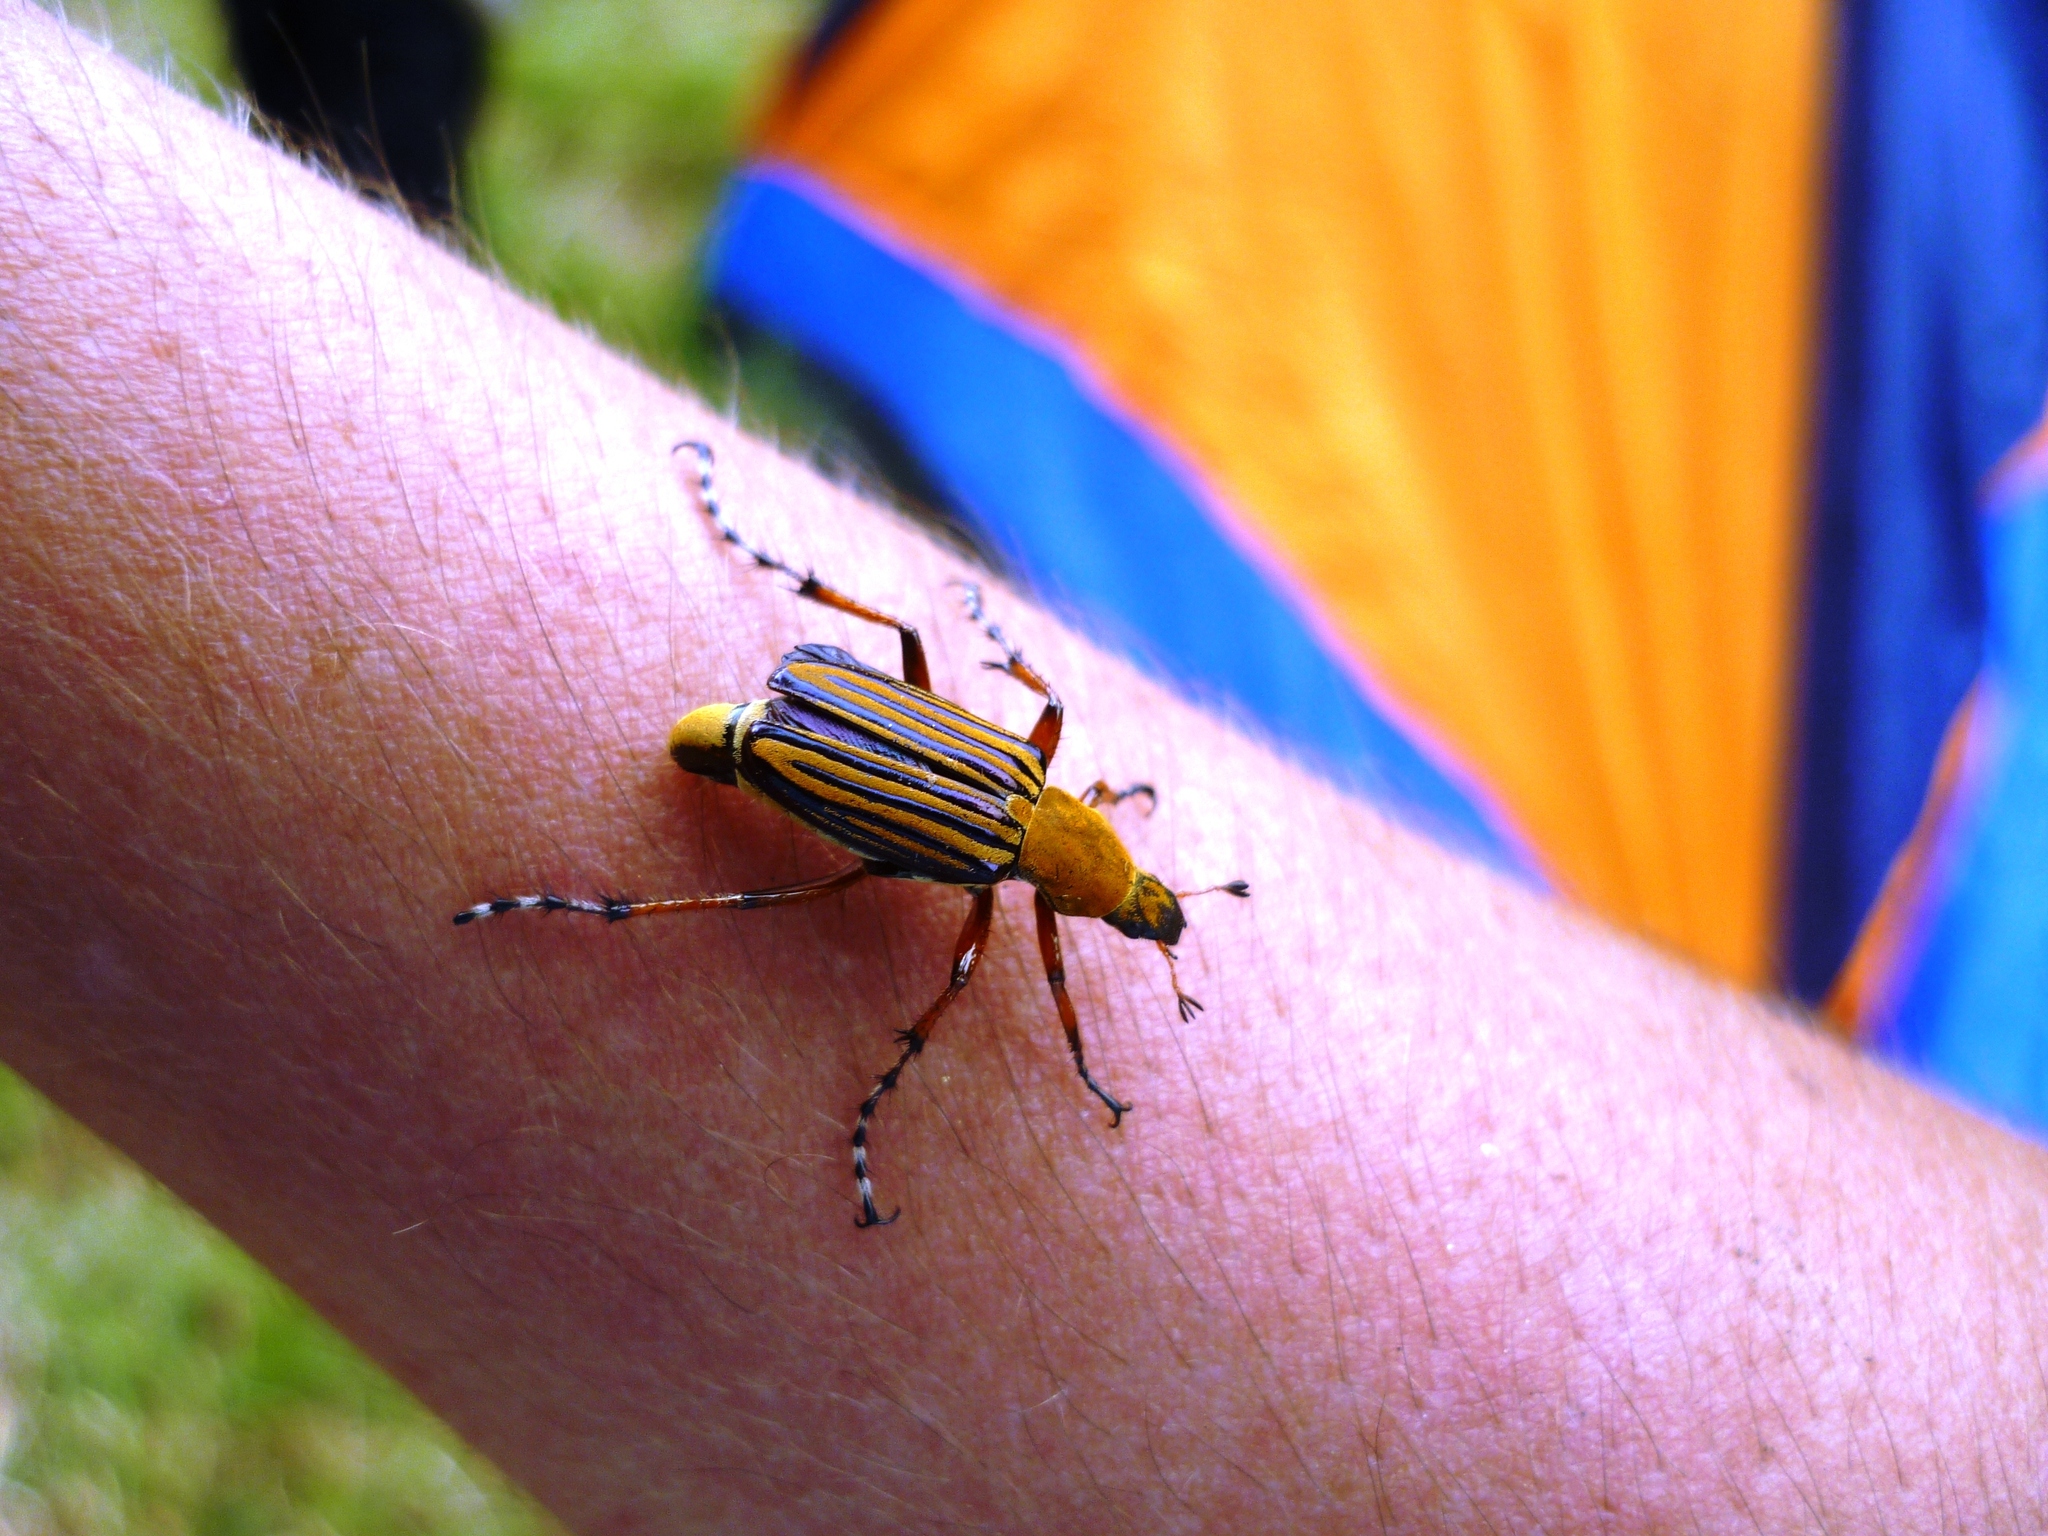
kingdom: Animalia
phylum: Arthropoda
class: Insecta
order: Coleoptera
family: Scarabaeidae
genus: Macrodactylus
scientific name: Macrodactylus sulphureus
